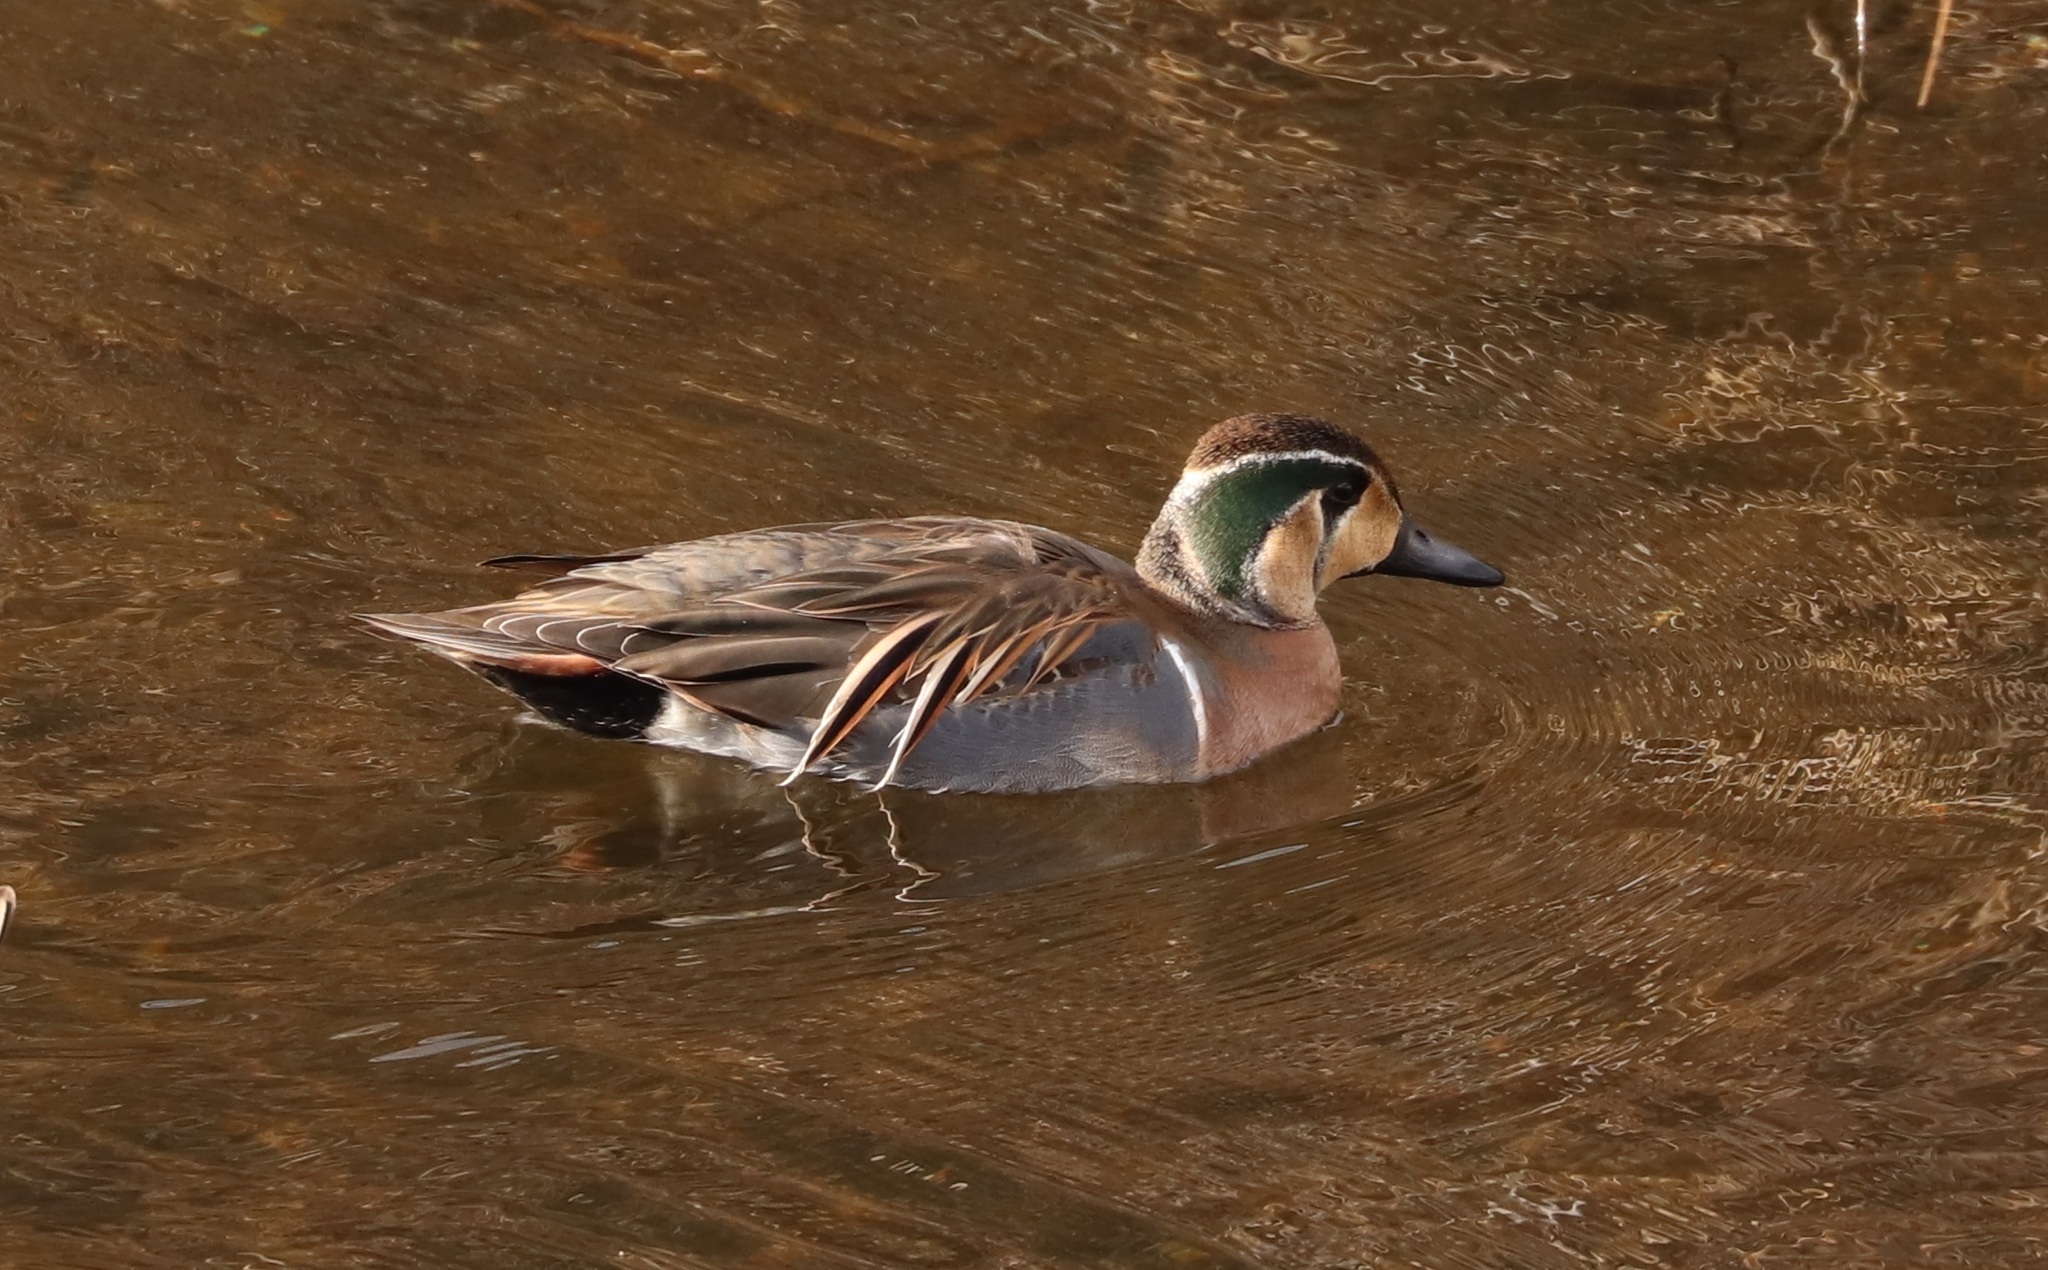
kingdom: Animalia
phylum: Chordata
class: Aves
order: Anseriformes
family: Anatidae
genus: Sibirionetta
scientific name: Sibirionetta formosa
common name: Baikal teal
